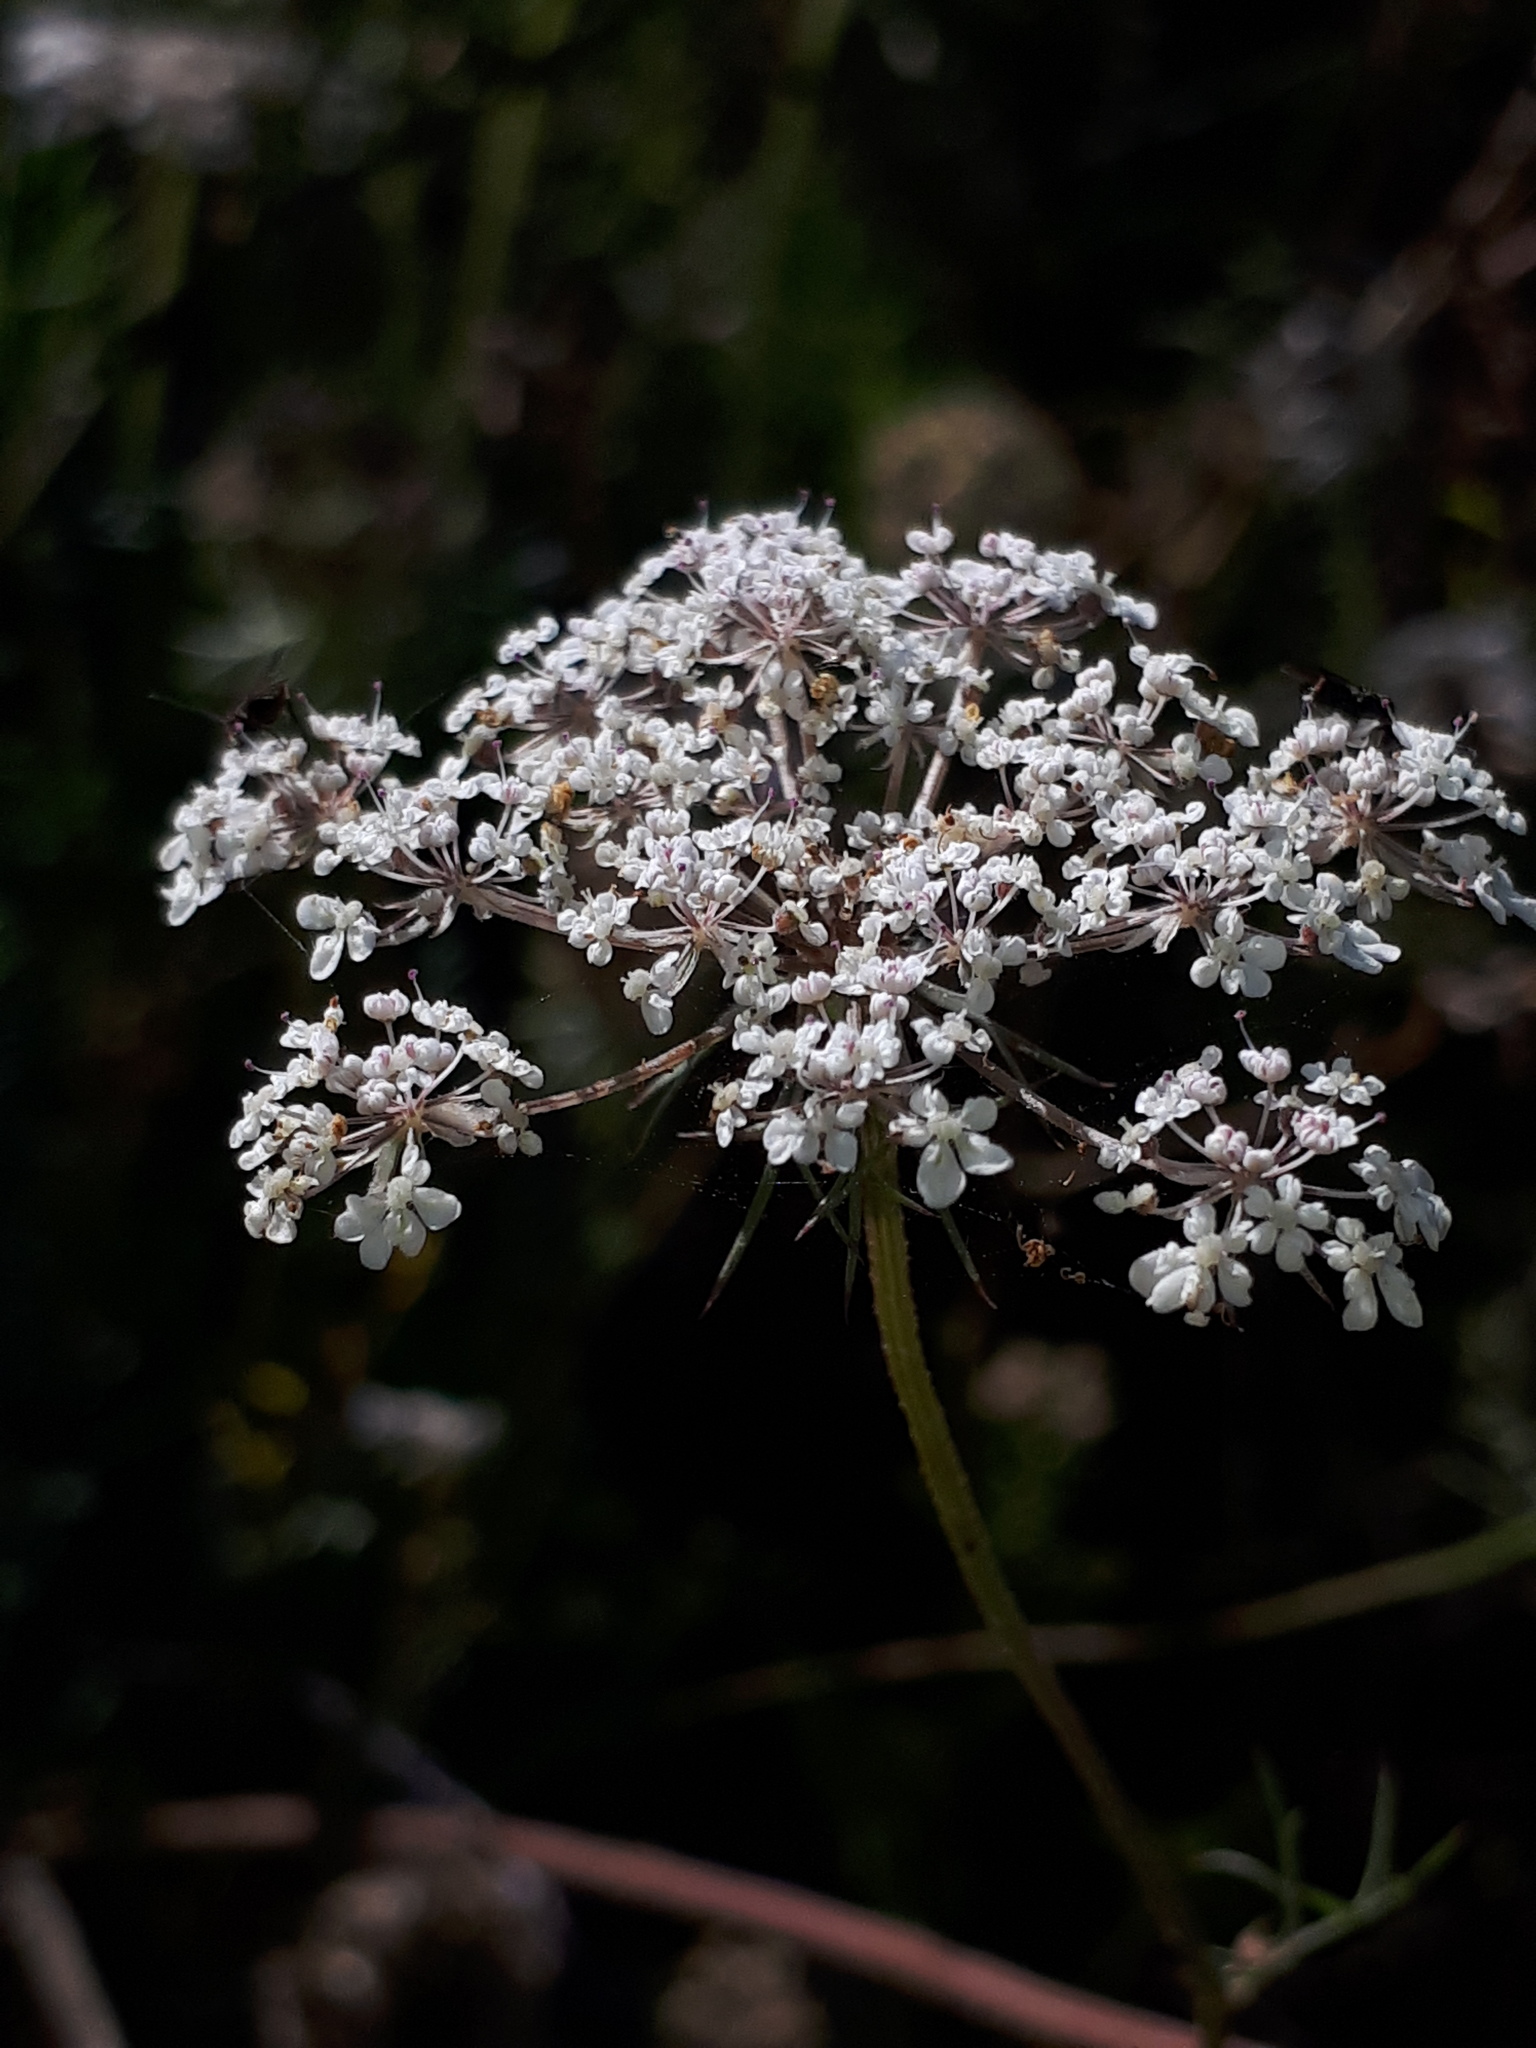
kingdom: Plantae
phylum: Tracheophyta
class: Magnoliopsida
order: Apiales
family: Apiaceae
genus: Daucus
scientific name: Daucus carota
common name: Wild carrot
